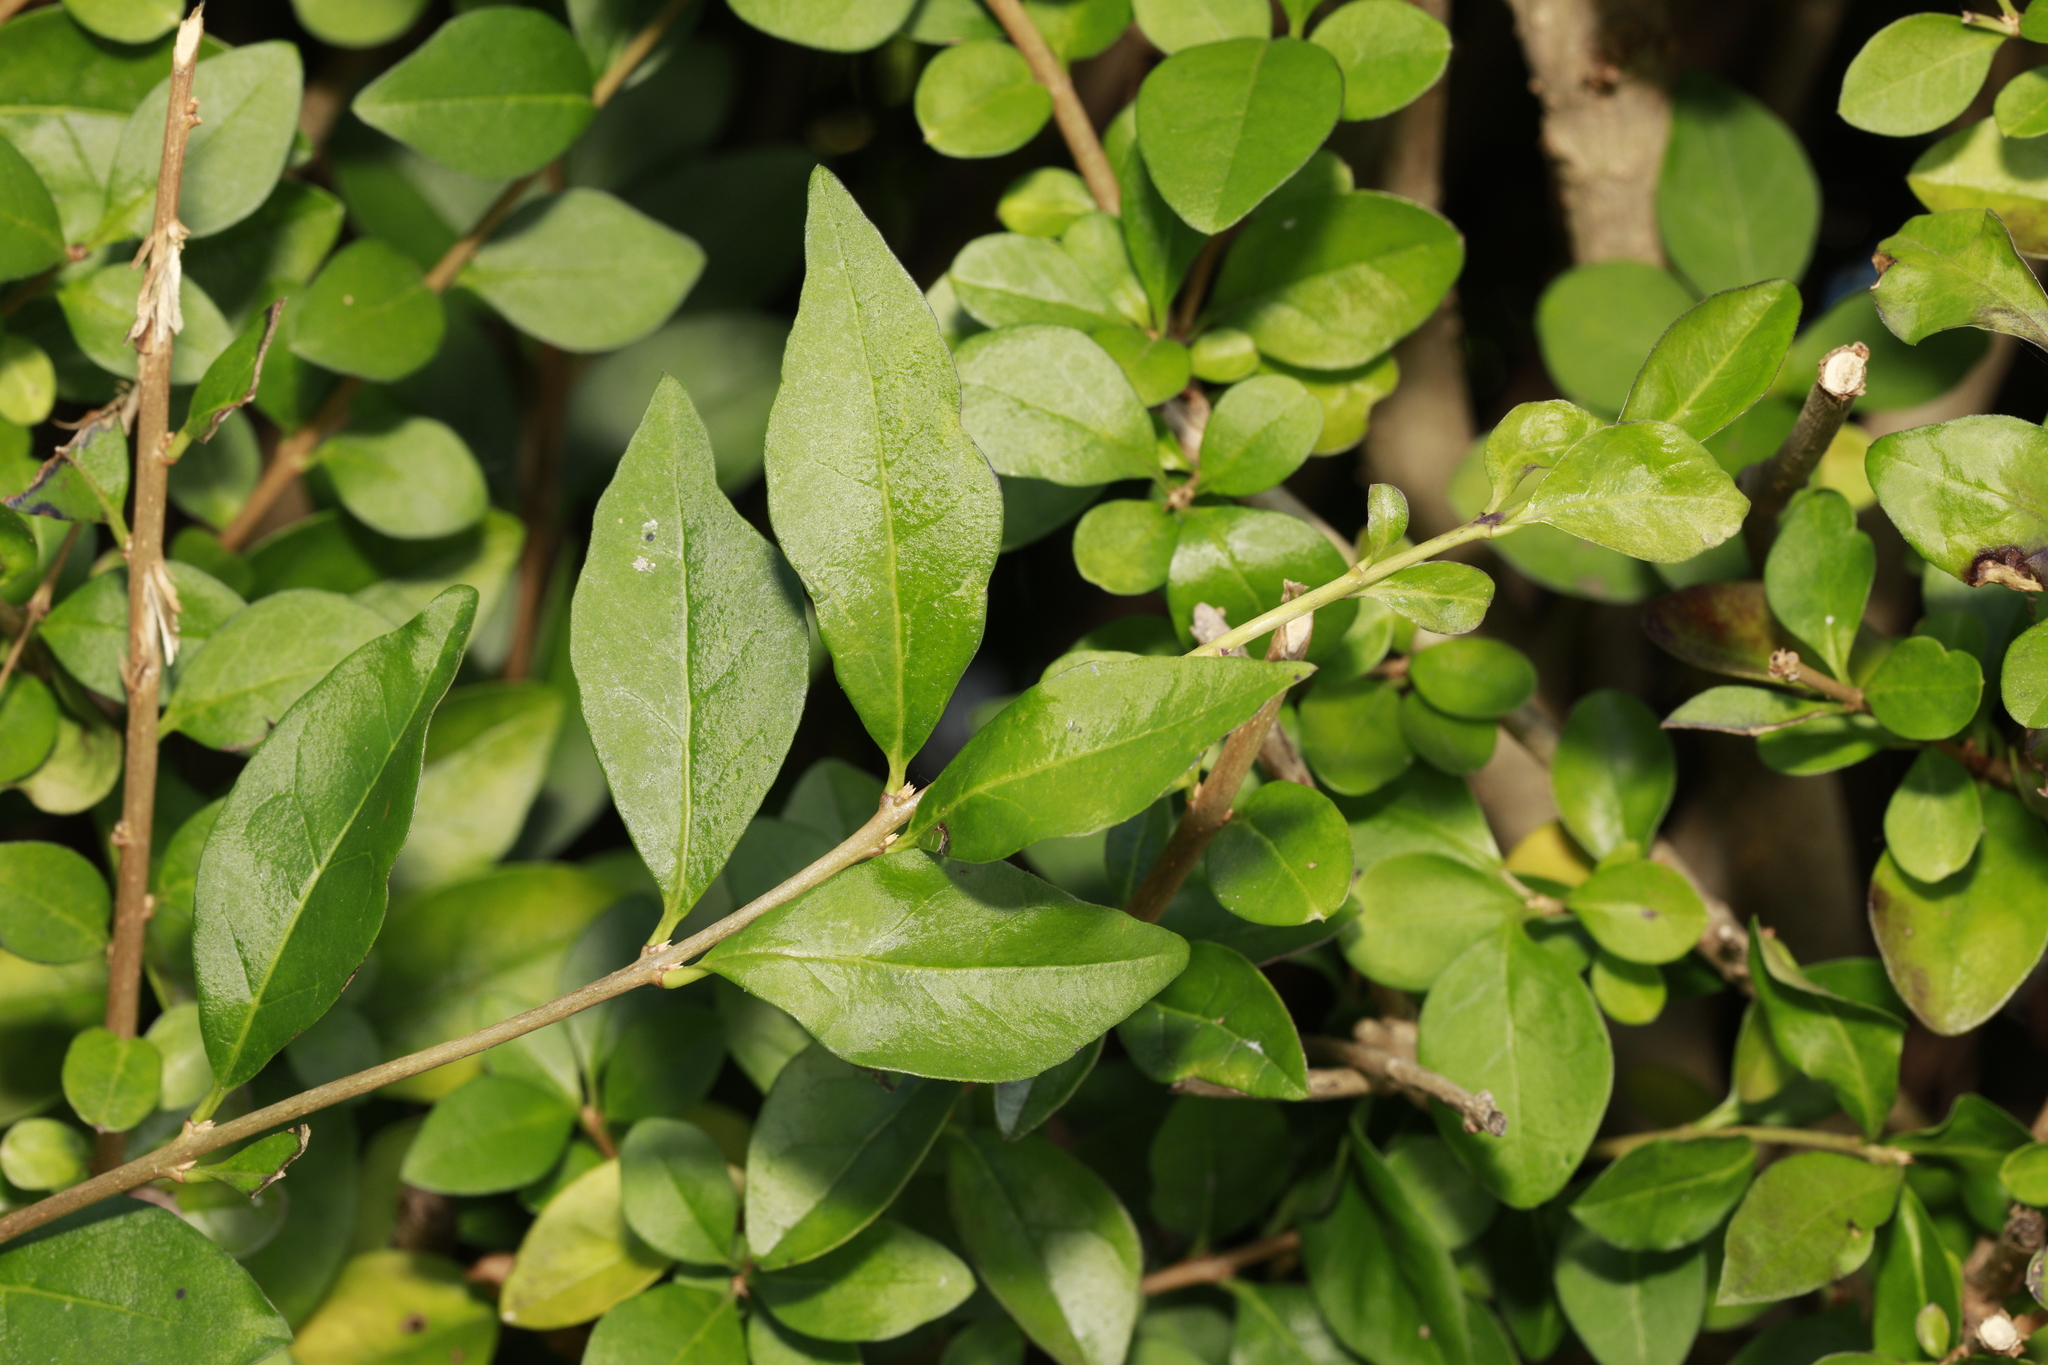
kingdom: Plantae
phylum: Tracheophyta
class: Magnoliopsida
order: Lamiales
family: Oleaceae
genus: Ligustrum
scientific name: Ligustrum ovalifolium
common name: California privet
